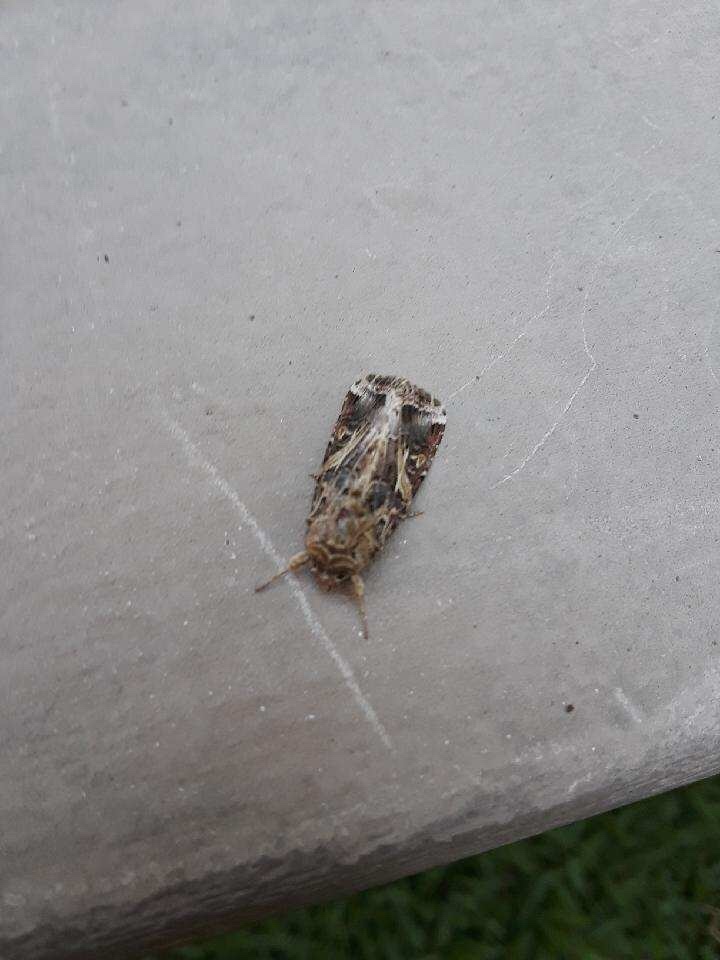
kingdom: Animalia
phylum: Arthropoda
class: Insecta
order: Lepidoptera
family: Noctuidae
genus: Spodoptera
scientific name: Spodoptera ornithogalli
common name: Yellow-striped armyworm
